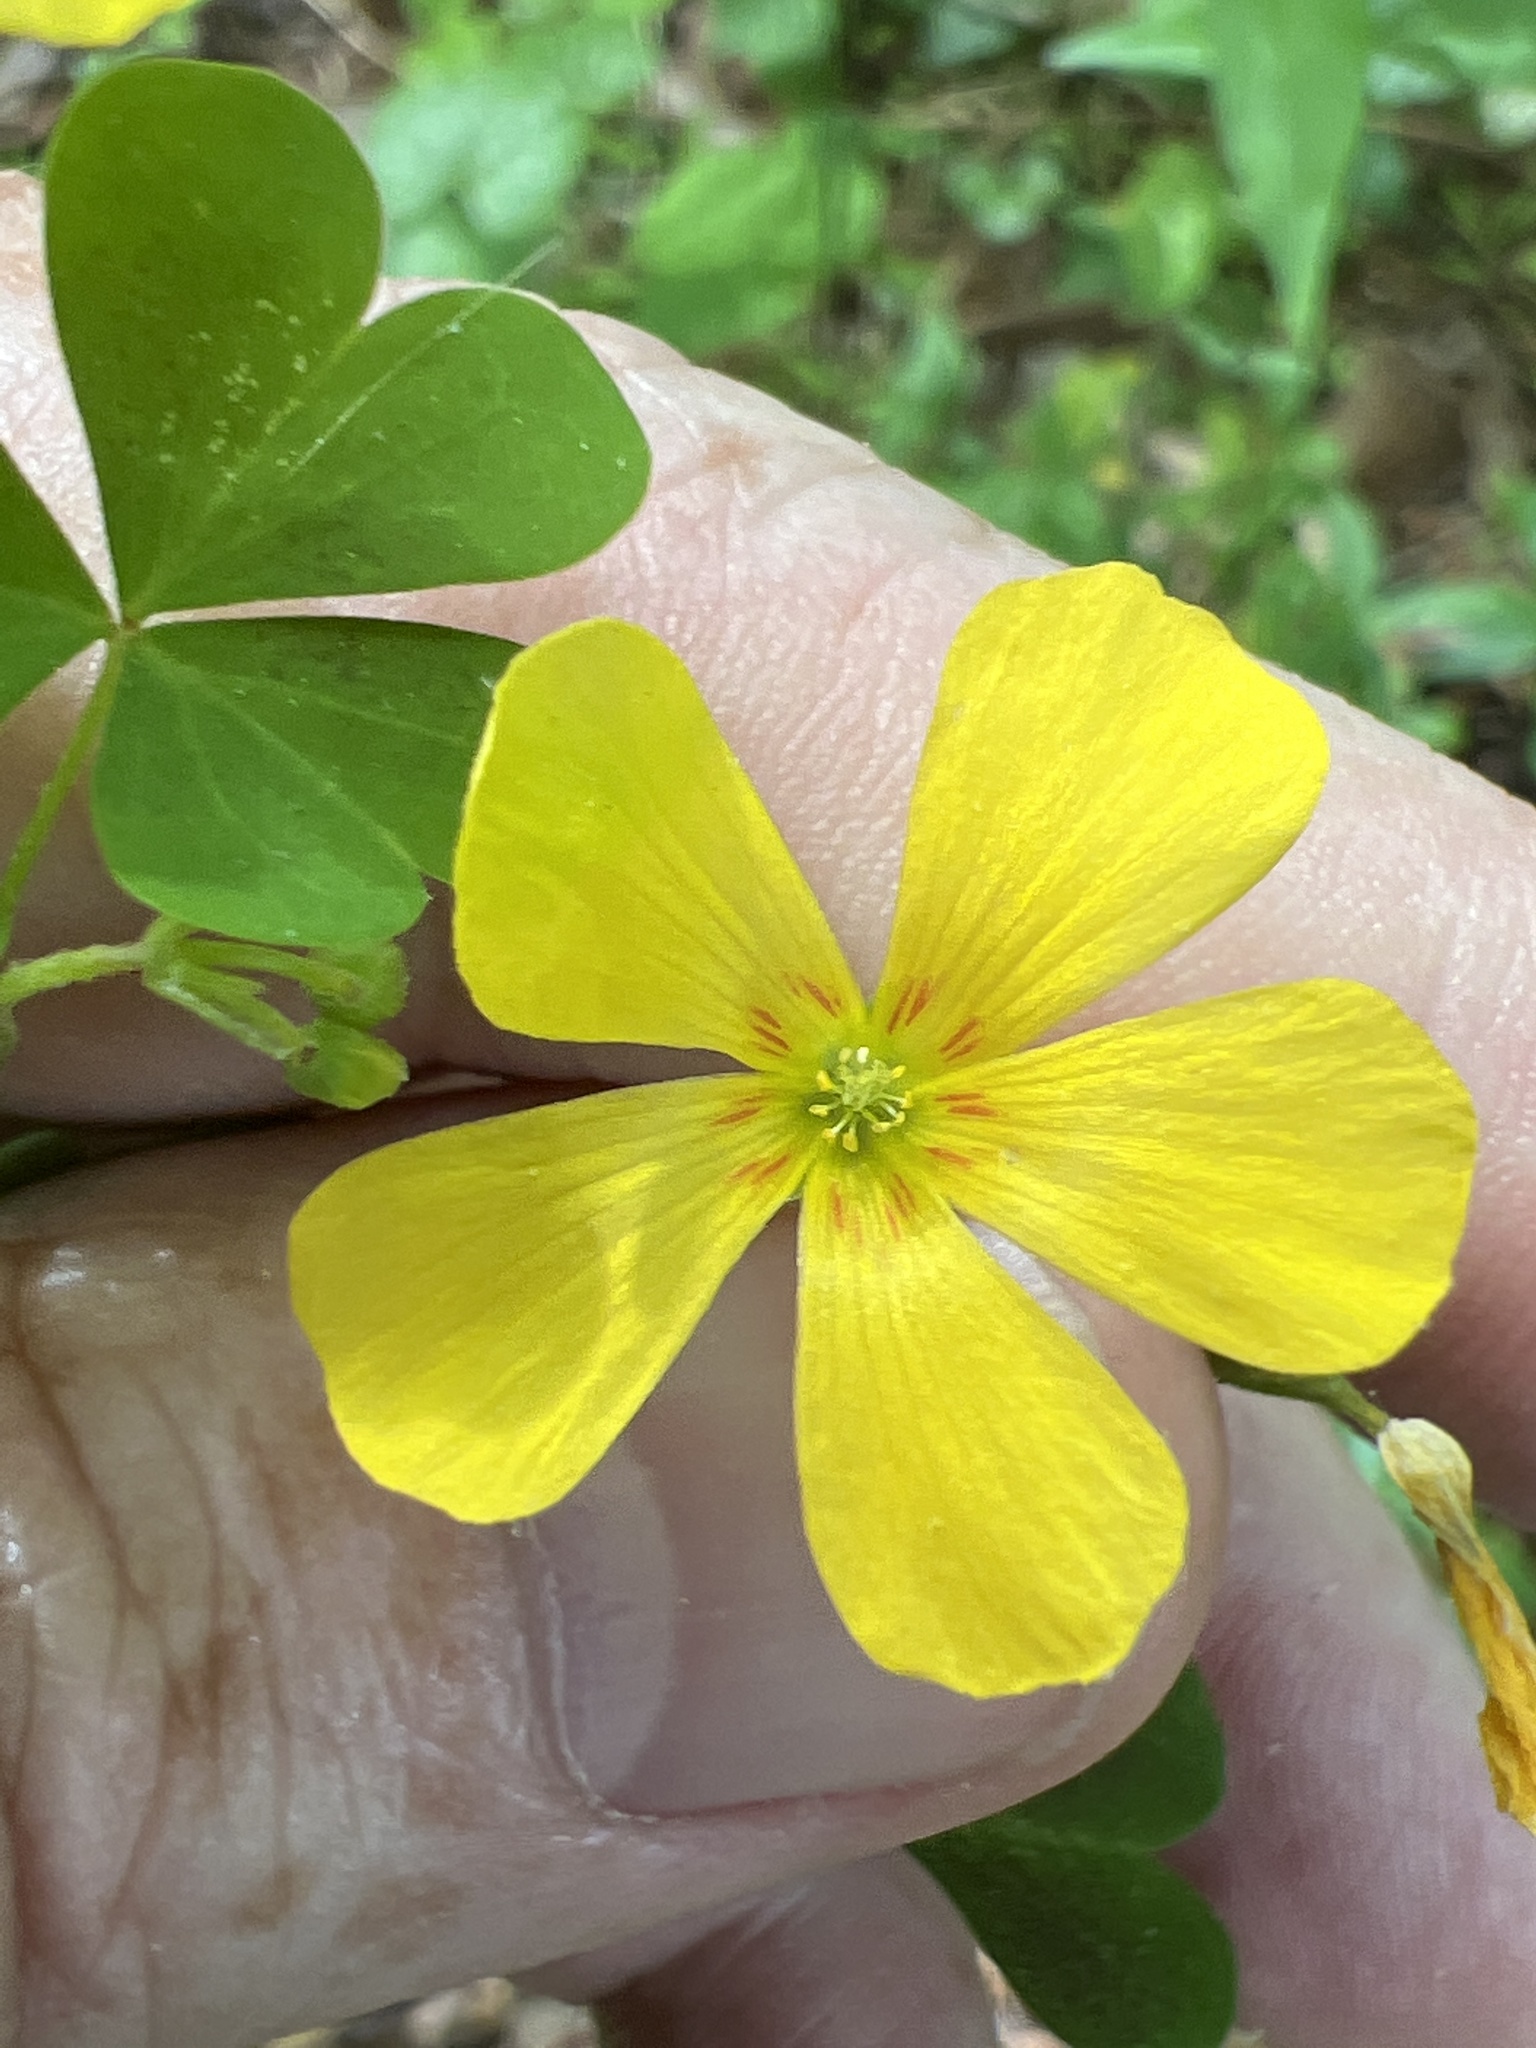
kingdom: Plantae
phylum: Tracheophyta
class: Magnoliopsida
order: Oxalidales
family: Oxalidaceae
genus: Oxalis
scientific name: Oxalis colorea
